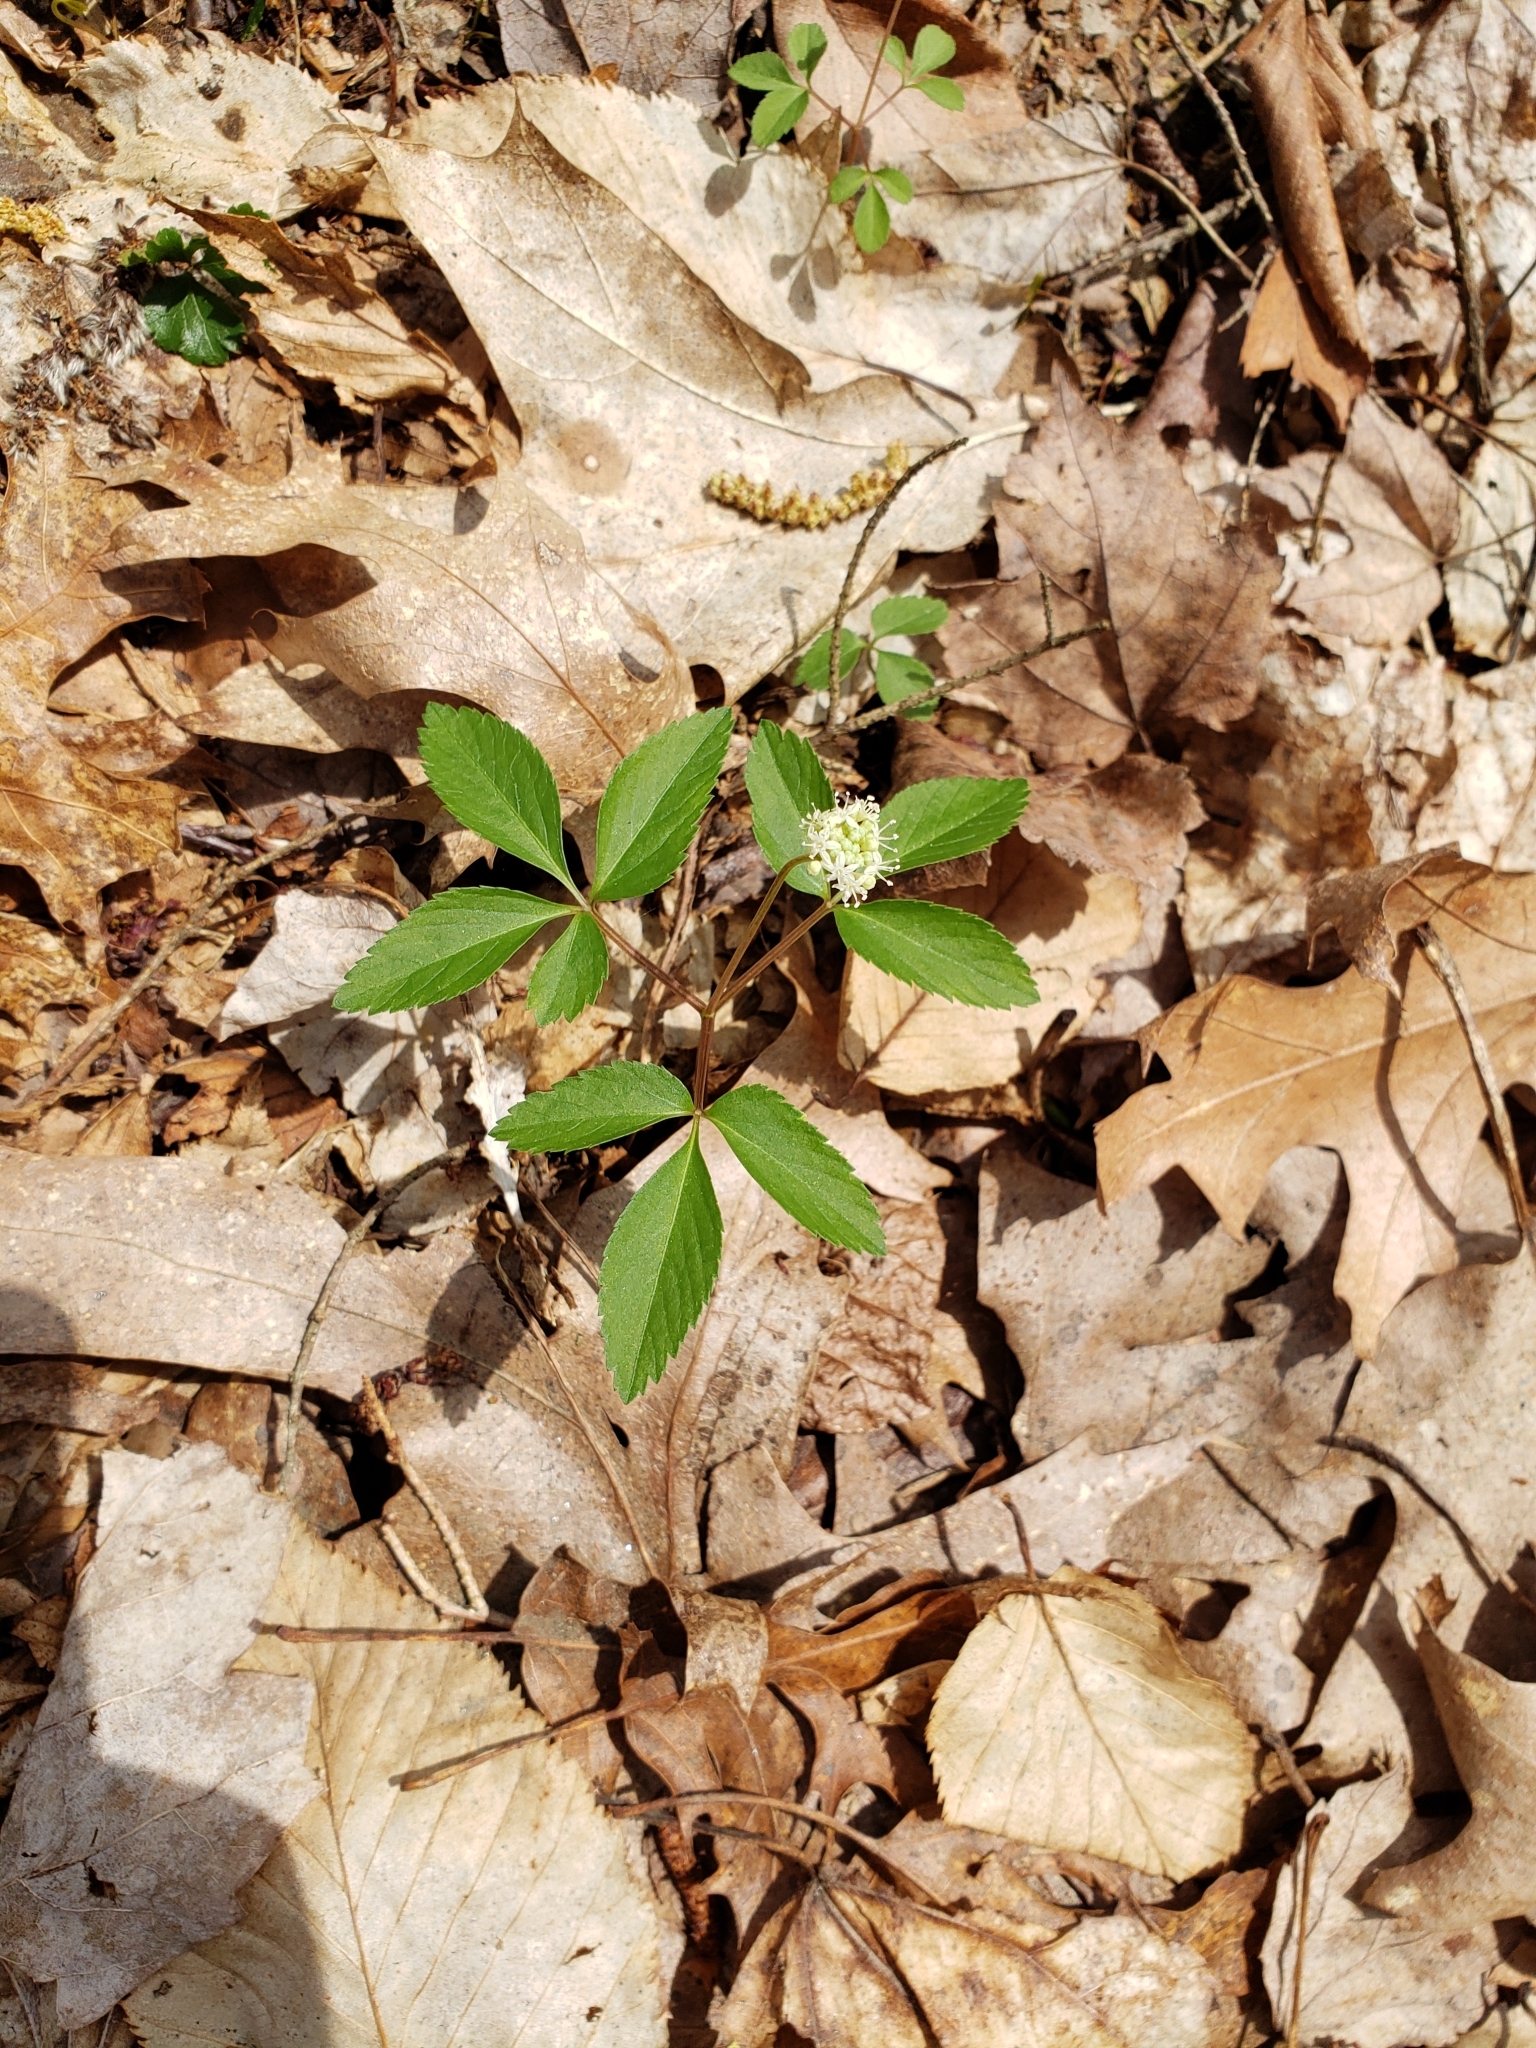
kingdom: Plantae
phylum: Tracheophyta
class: Magnoliopsida
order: Apiales
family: Araliaceae
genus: Panax
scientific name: Panax trifolius
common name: Dwarf ginseng
